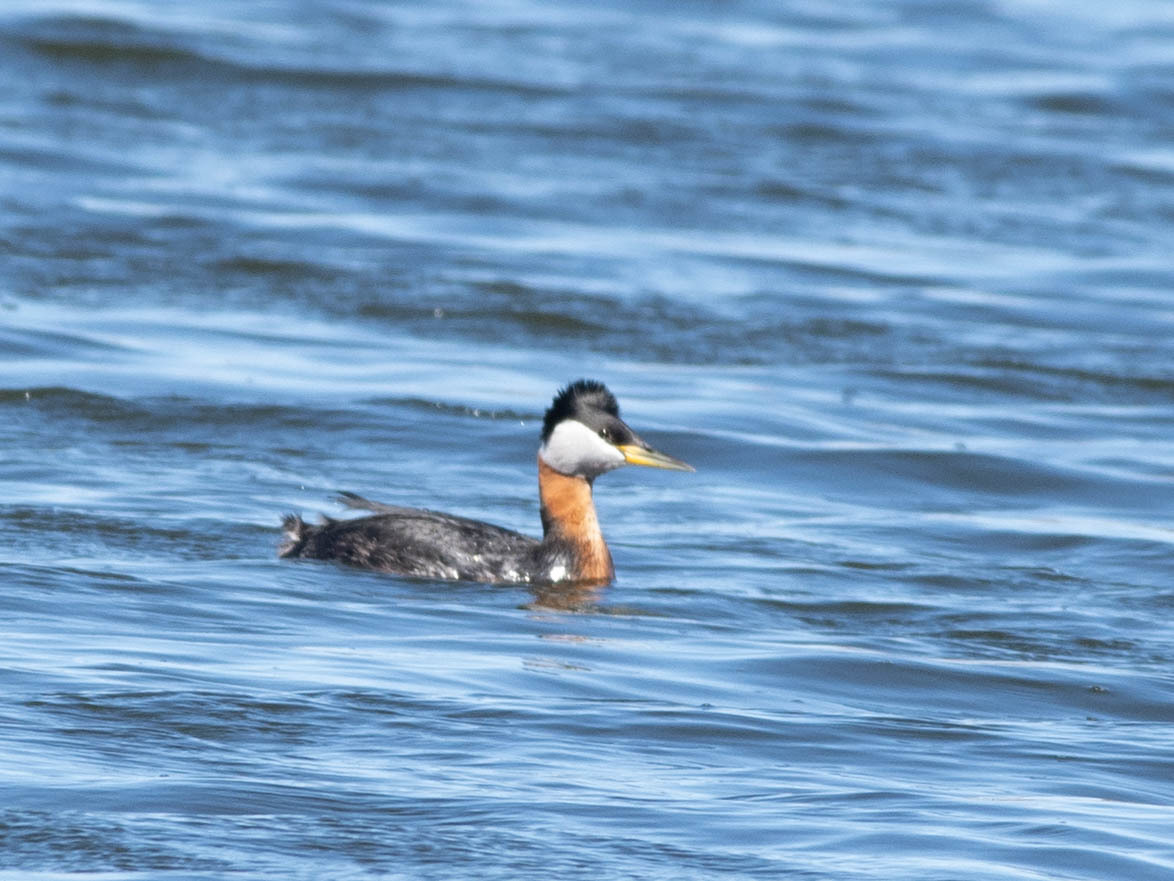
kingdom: Animalia
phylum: Chordata
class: Aves
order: Podicipediformes
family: Podicipedidae
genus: Podiceps
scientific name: Podiceps grisegena
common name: Red-necked grebe
